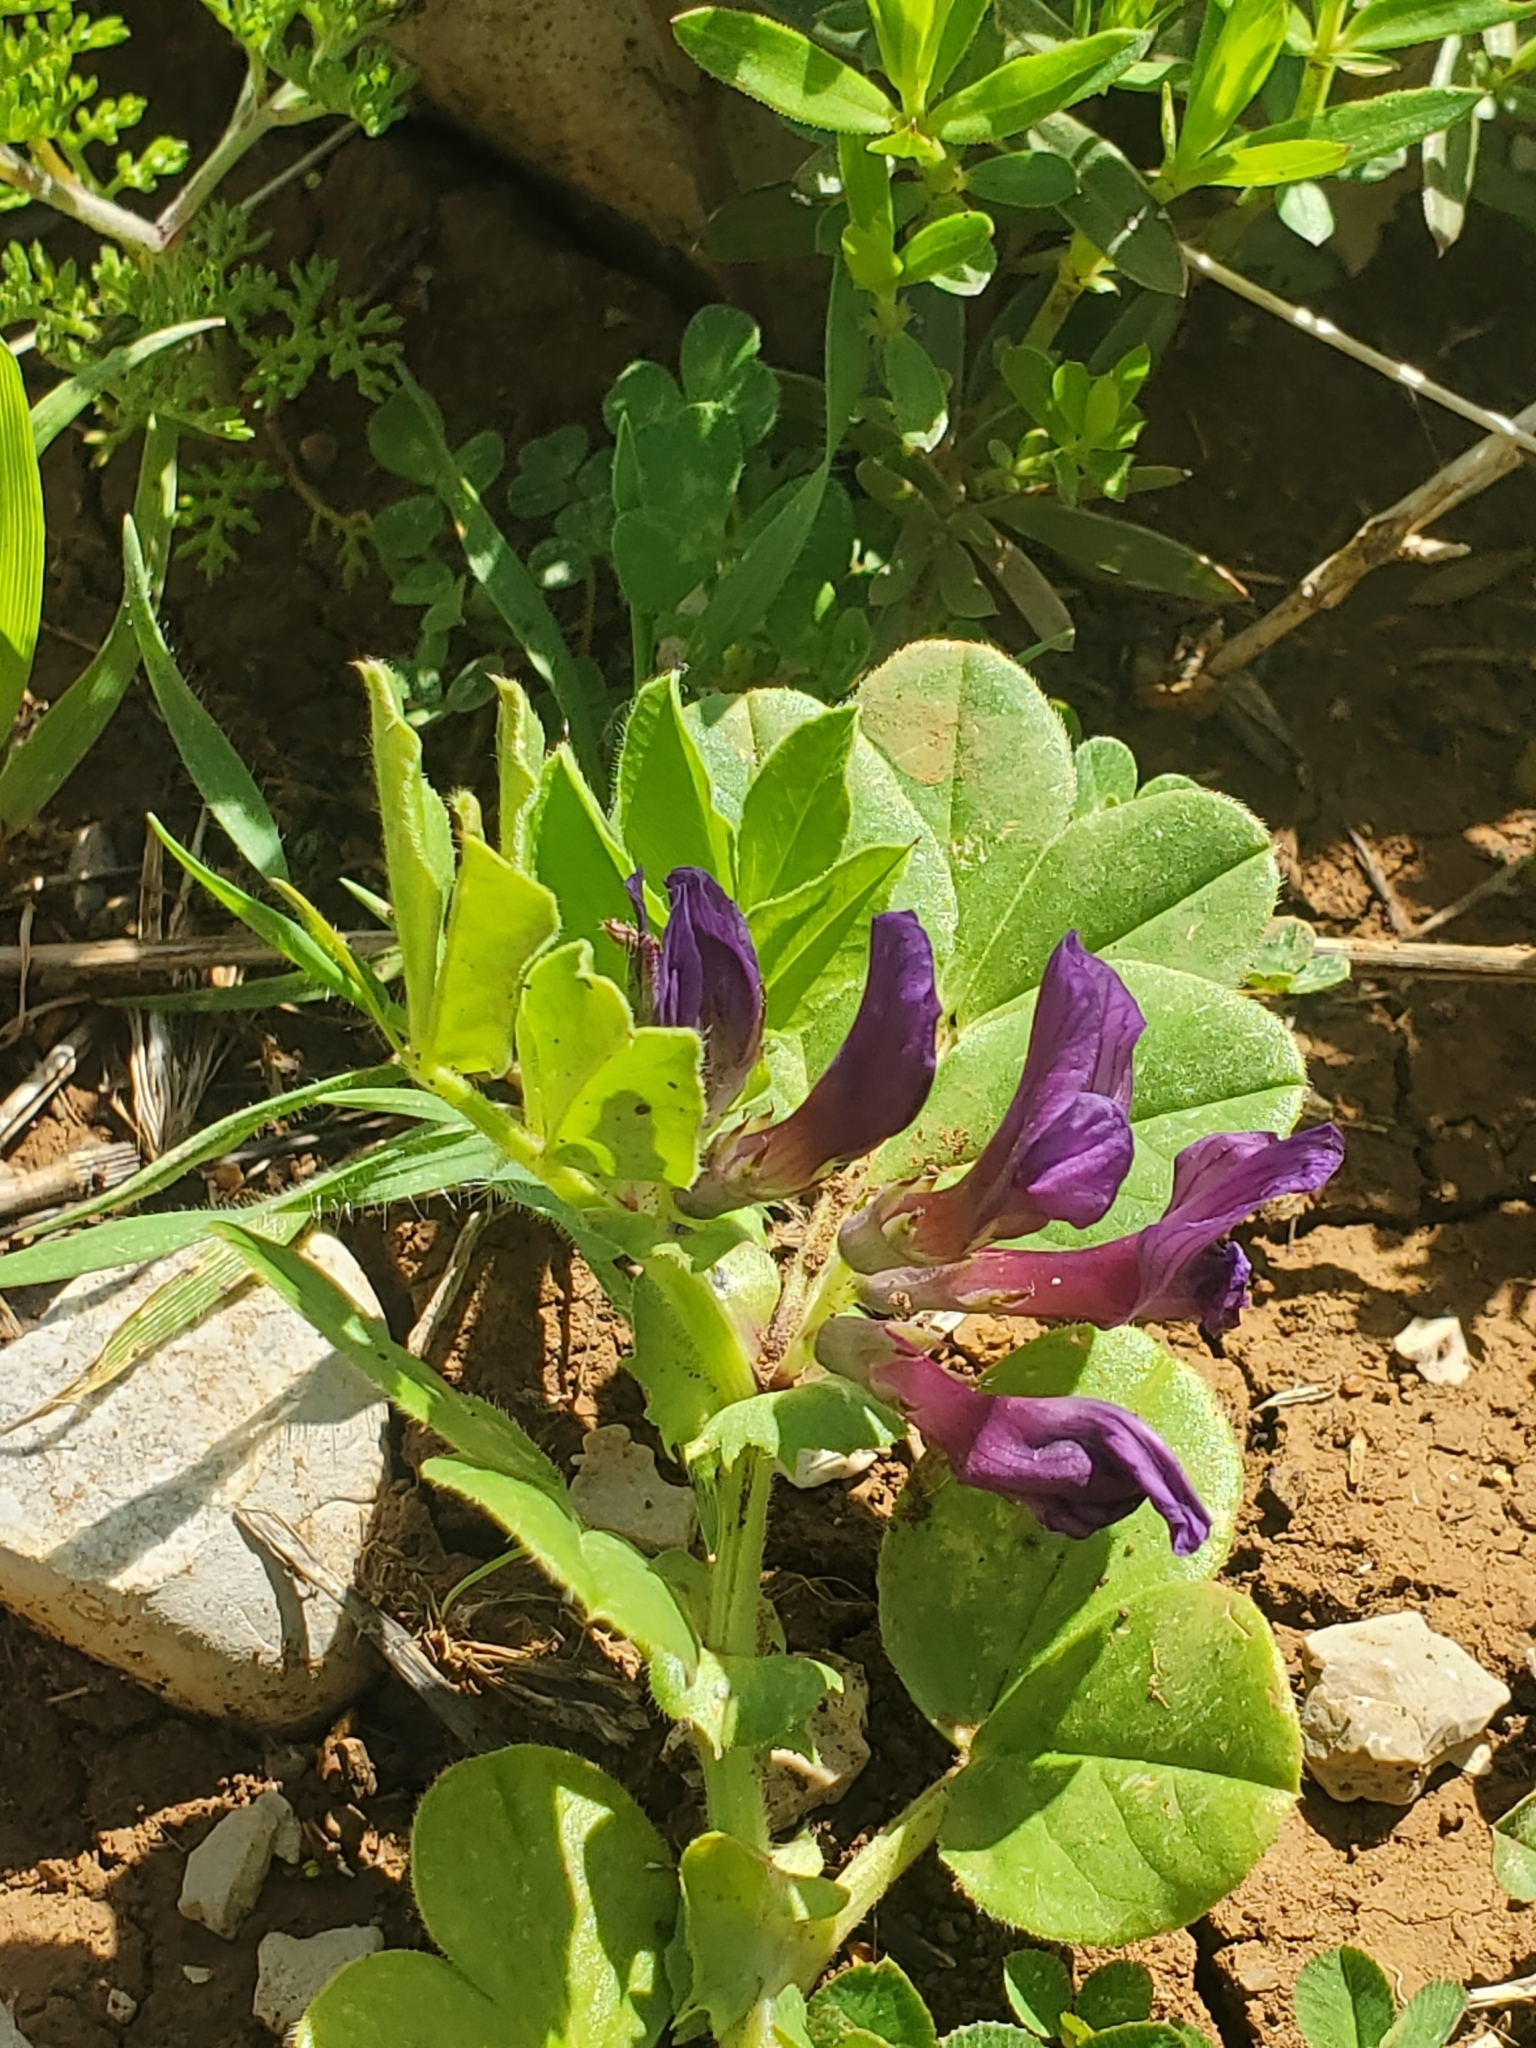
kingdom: Plantae
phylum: Tracheophyta
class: Magnoliopsida
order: Fabales
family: Fabaceae
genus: Vicia
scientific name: Vicia narbonensis
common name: Narbonne vetch
